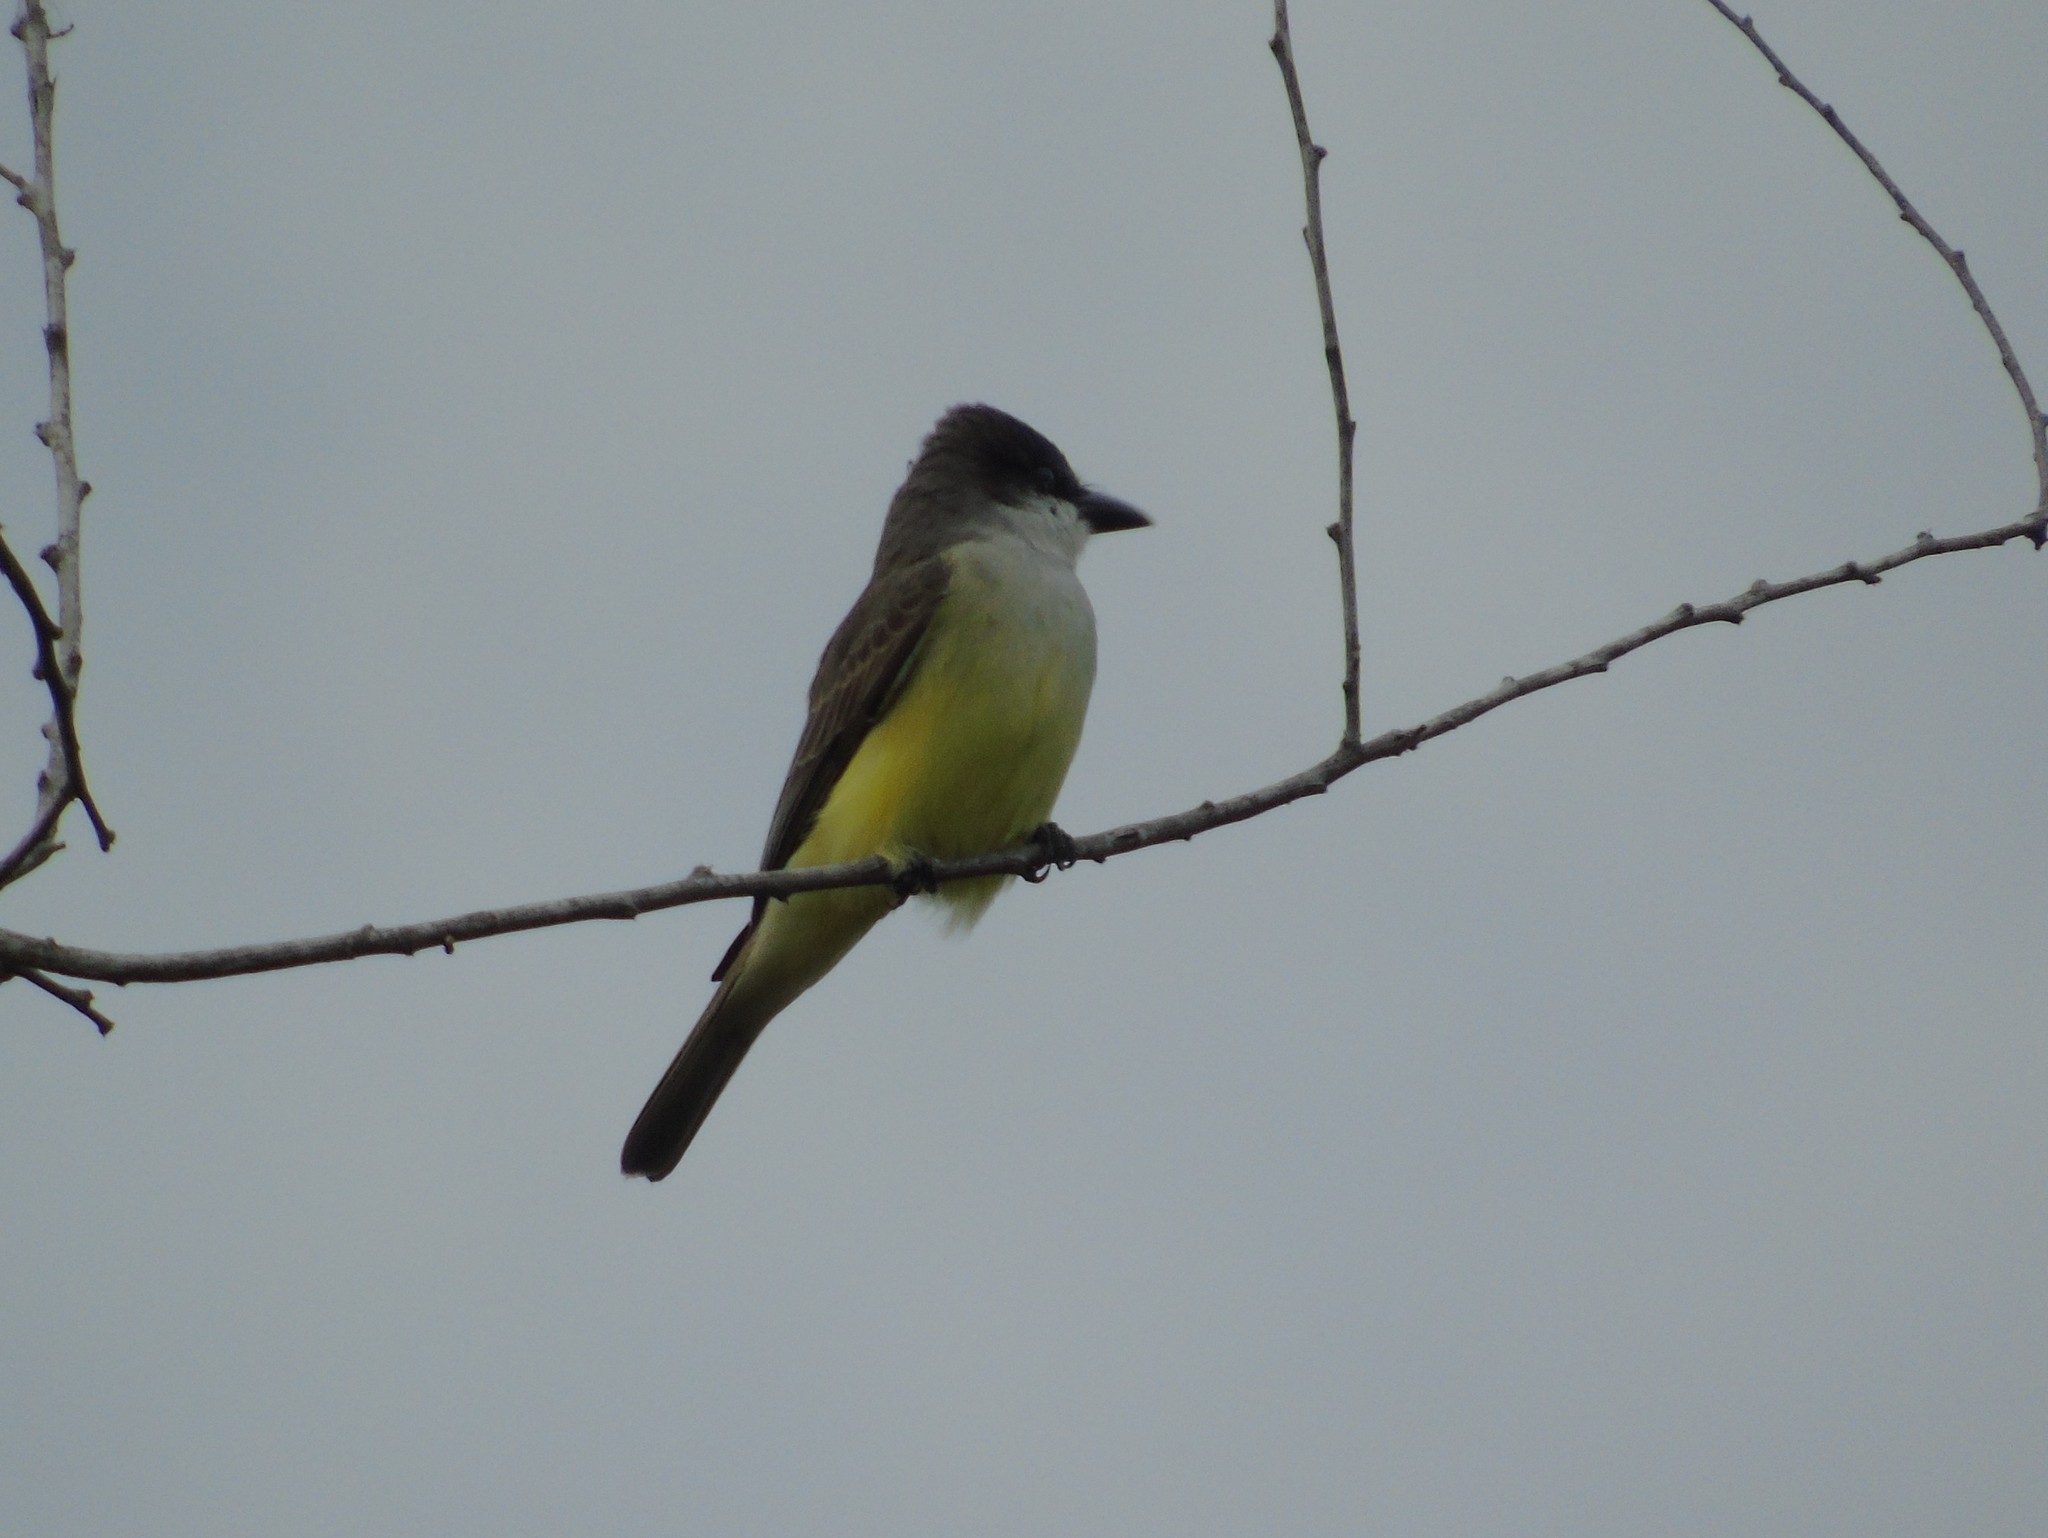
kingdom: Animalia
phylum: Chordata
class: Aves
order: Passeriformes
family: Tyrannidae
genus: Tyrannus
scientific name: Tyrannus crassirostris
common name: Thick-billed kingbird
